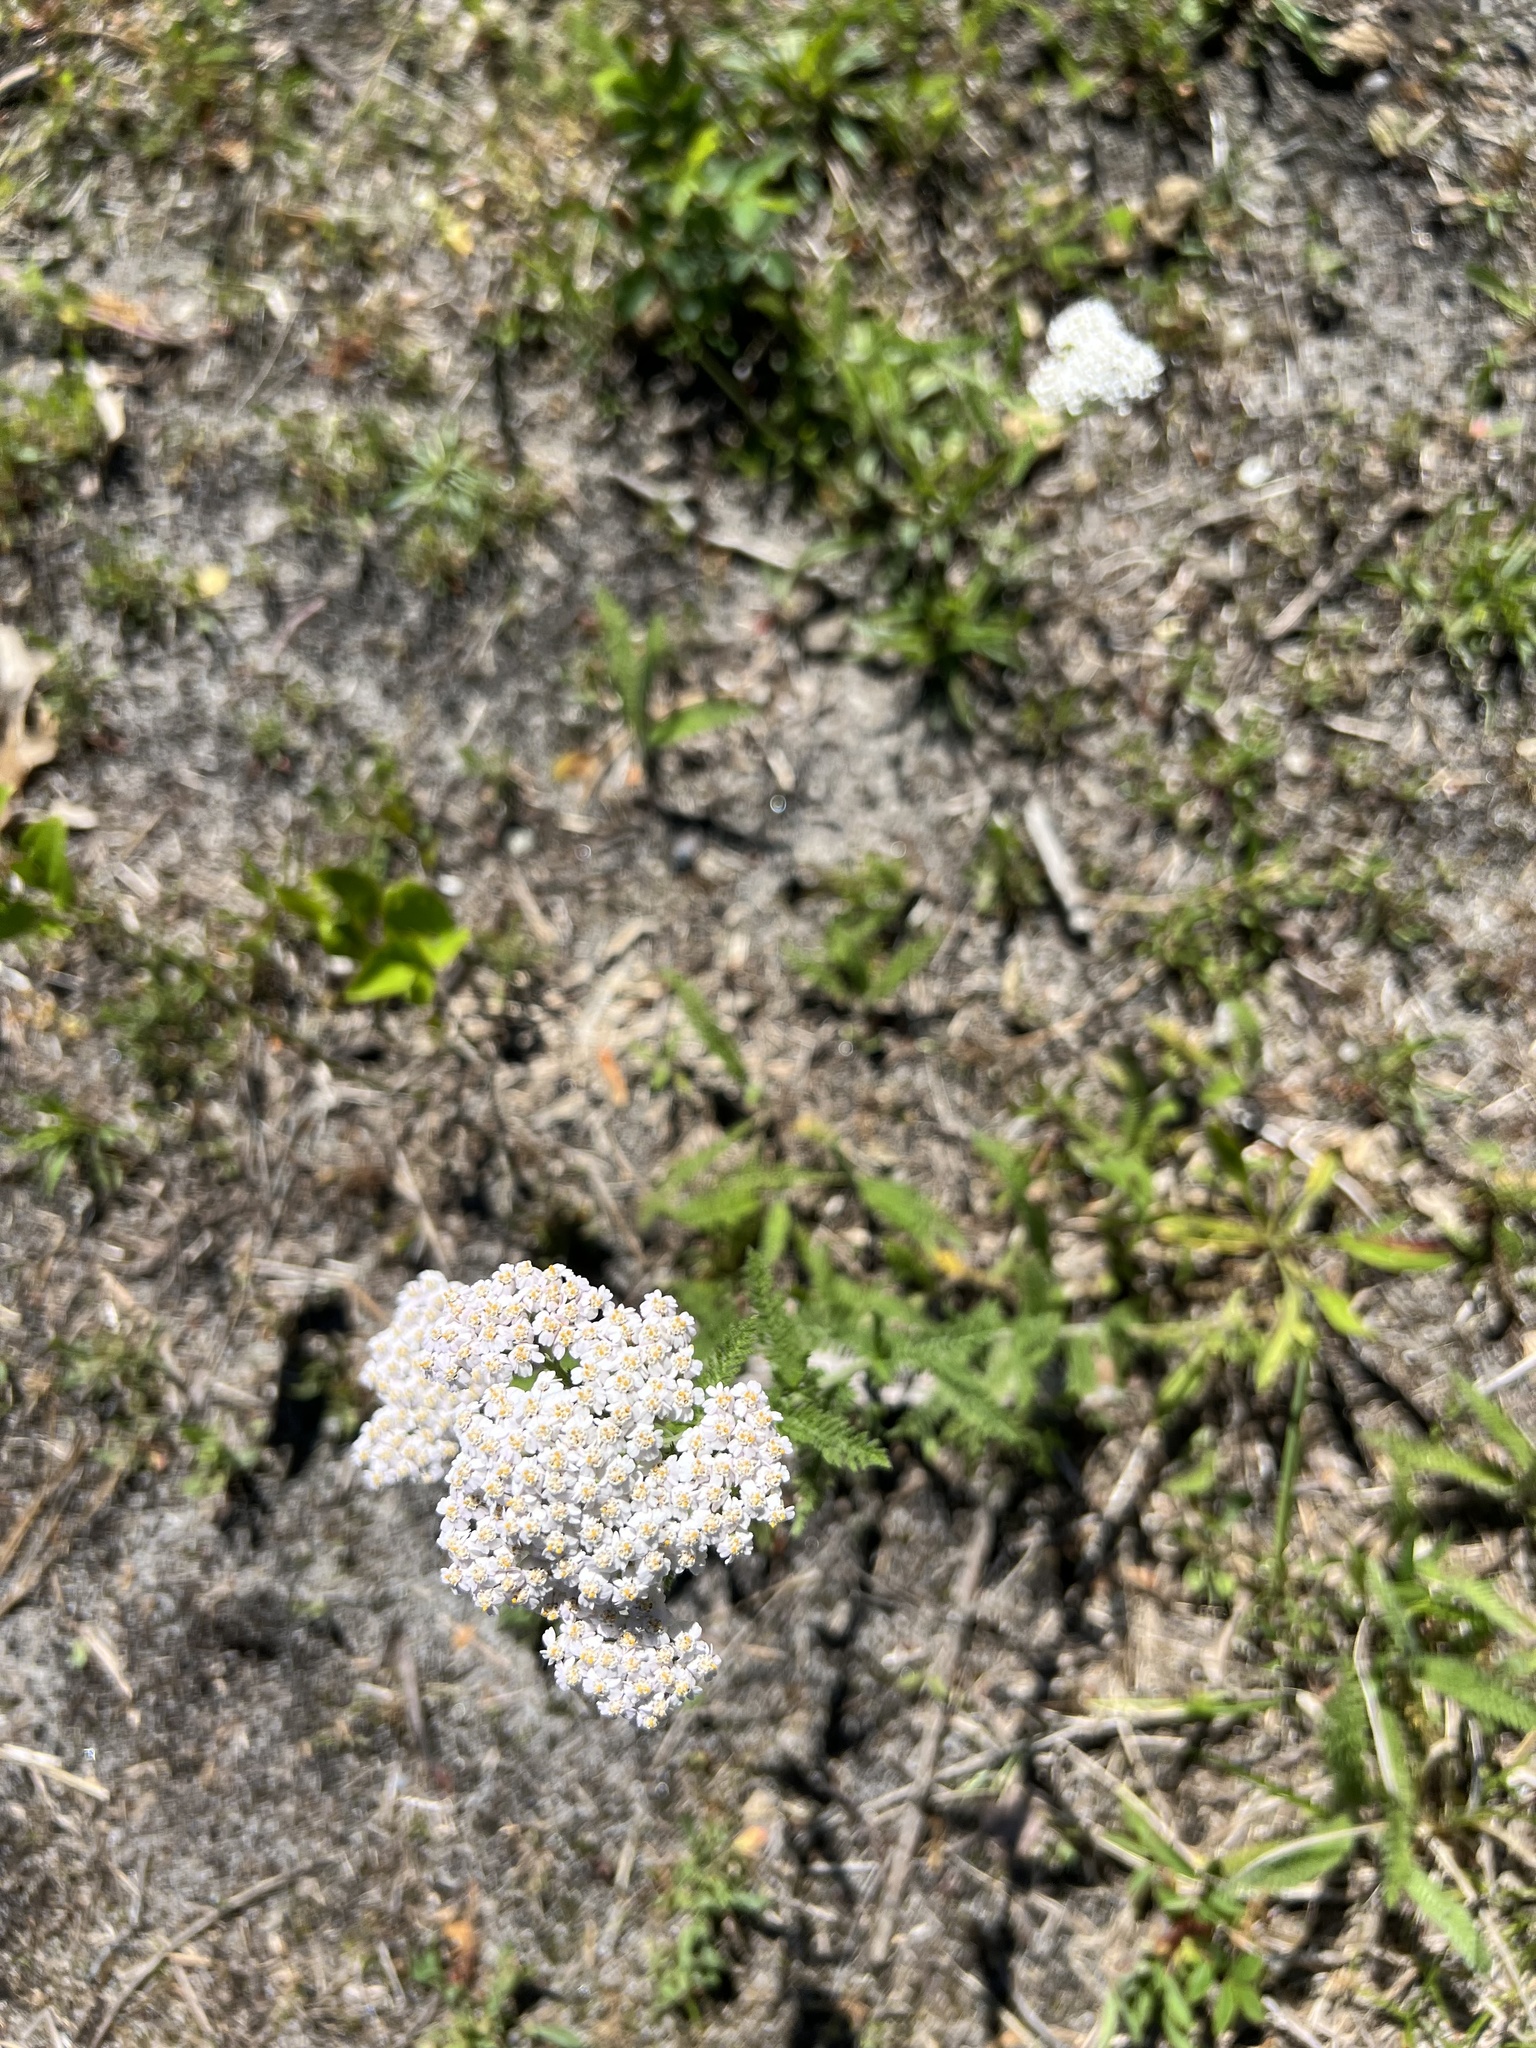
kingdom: Plantae
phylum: Tracheophyta
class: Magnoliopsida
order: Asterales
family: Asteraceae
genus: Achillea
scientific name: Achillea millefolium
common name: Yarrow
